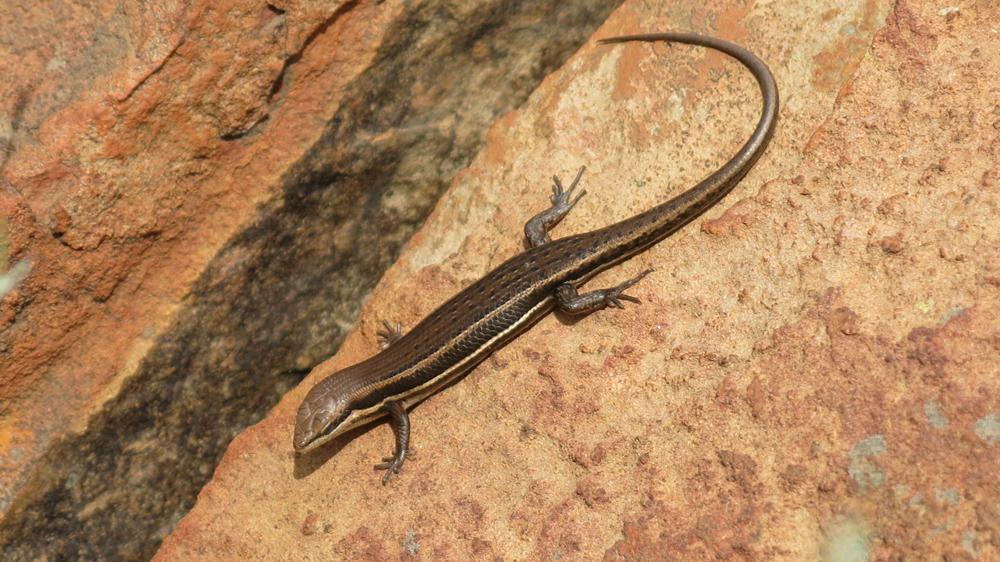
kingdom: Animalia
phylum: Chordata
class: Squamata
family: Scincidae
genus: Trachylepis
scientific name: Trachylepis varia
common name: Eastern variable skink
